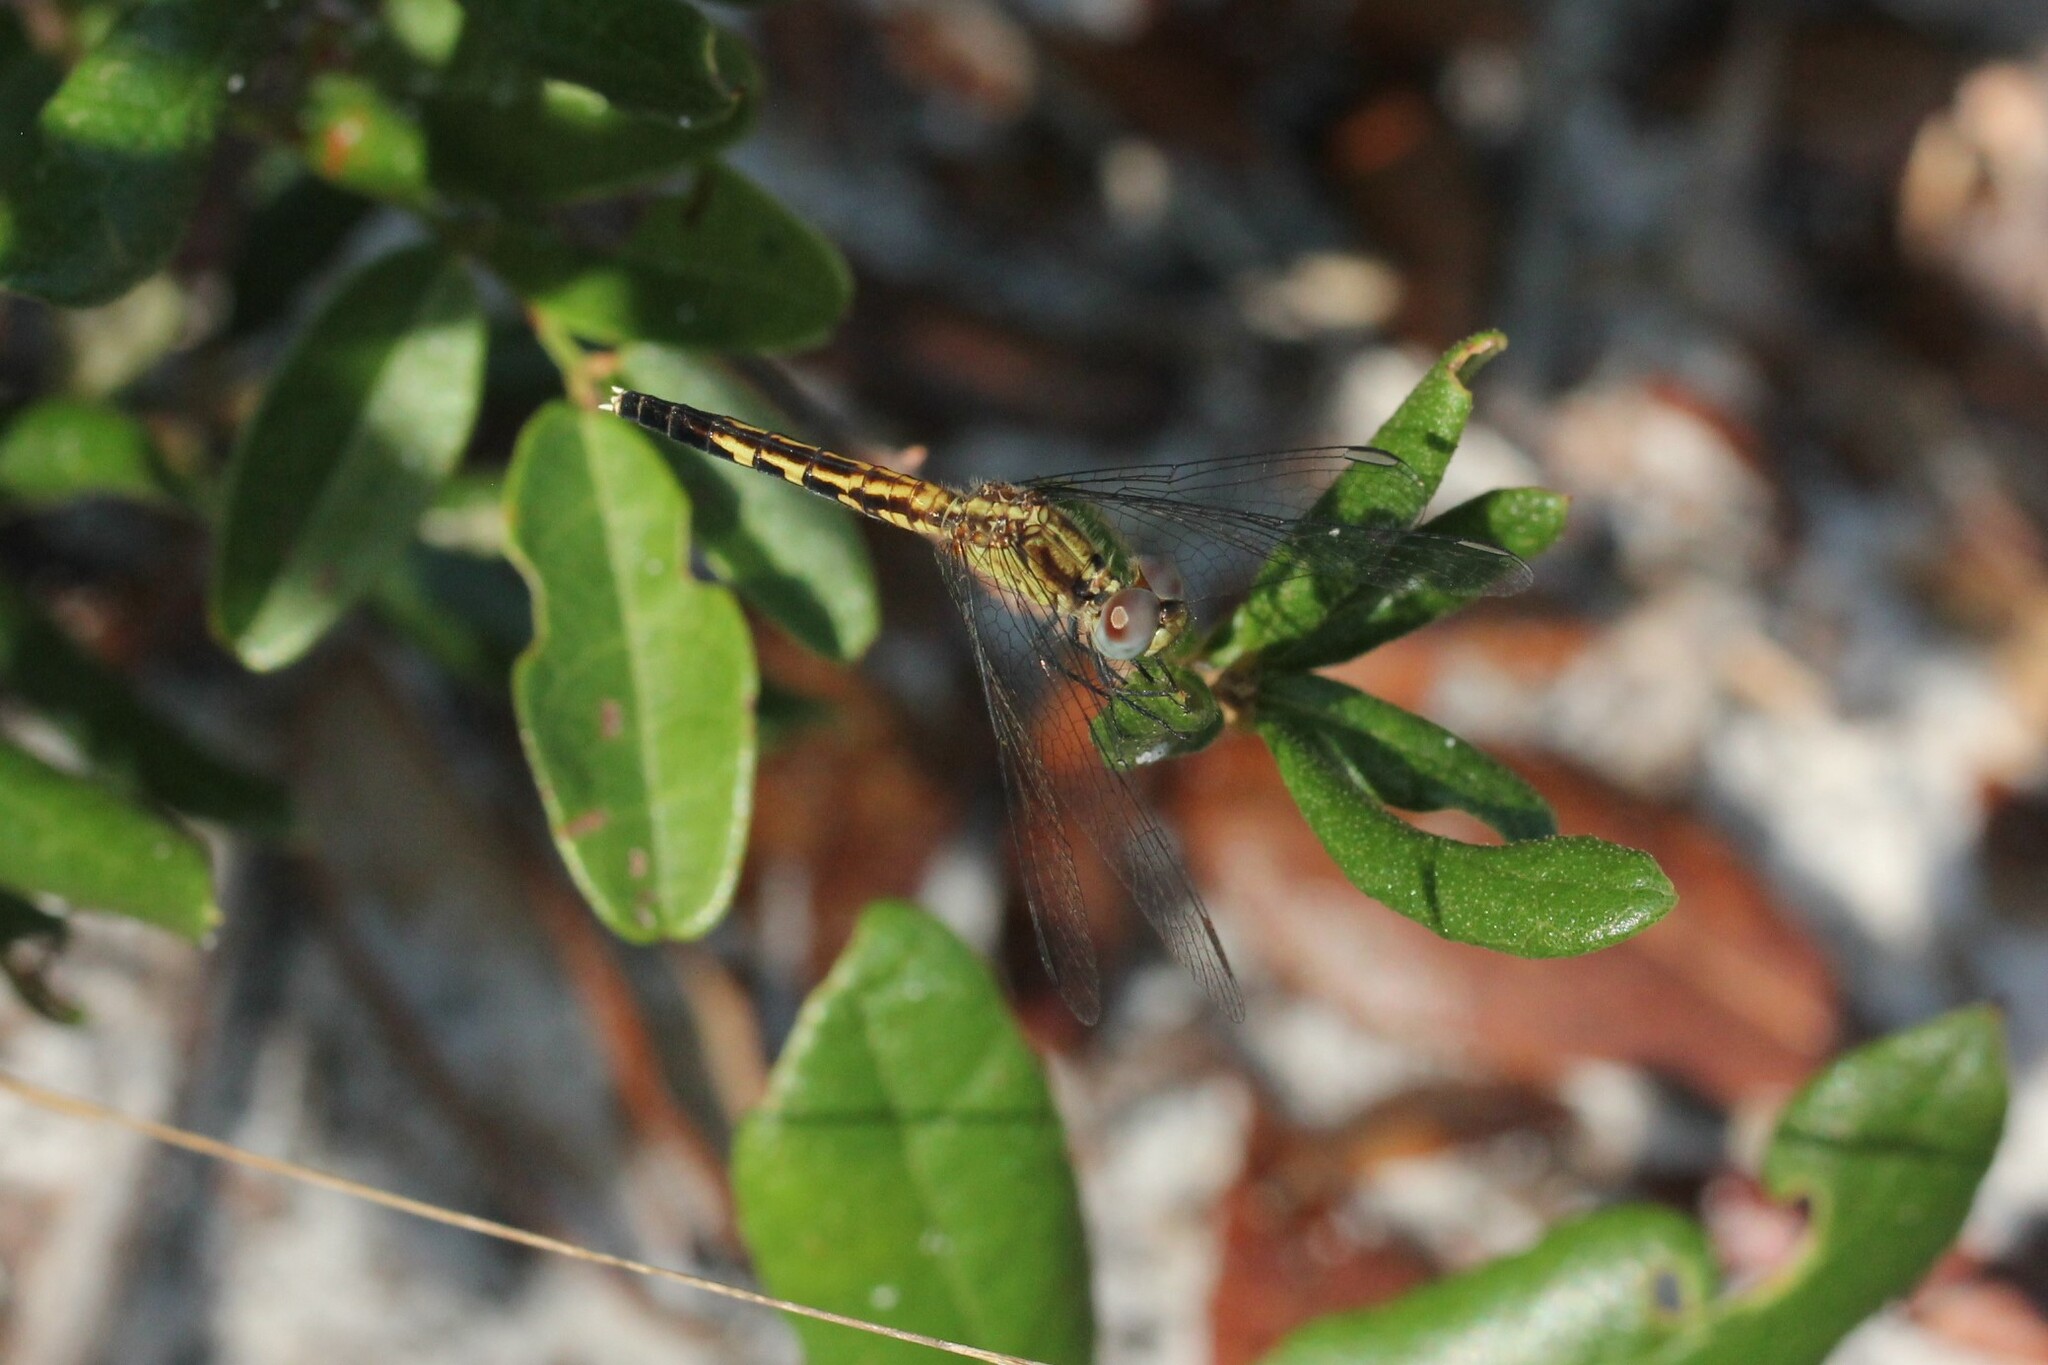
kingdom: Animalia
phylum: Arthropoda
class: Insecta
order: Odonata
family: Libellulidae
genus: Erythrodiplax
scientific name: Erythrodiplax minuscula
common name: Little blue dragonlet
